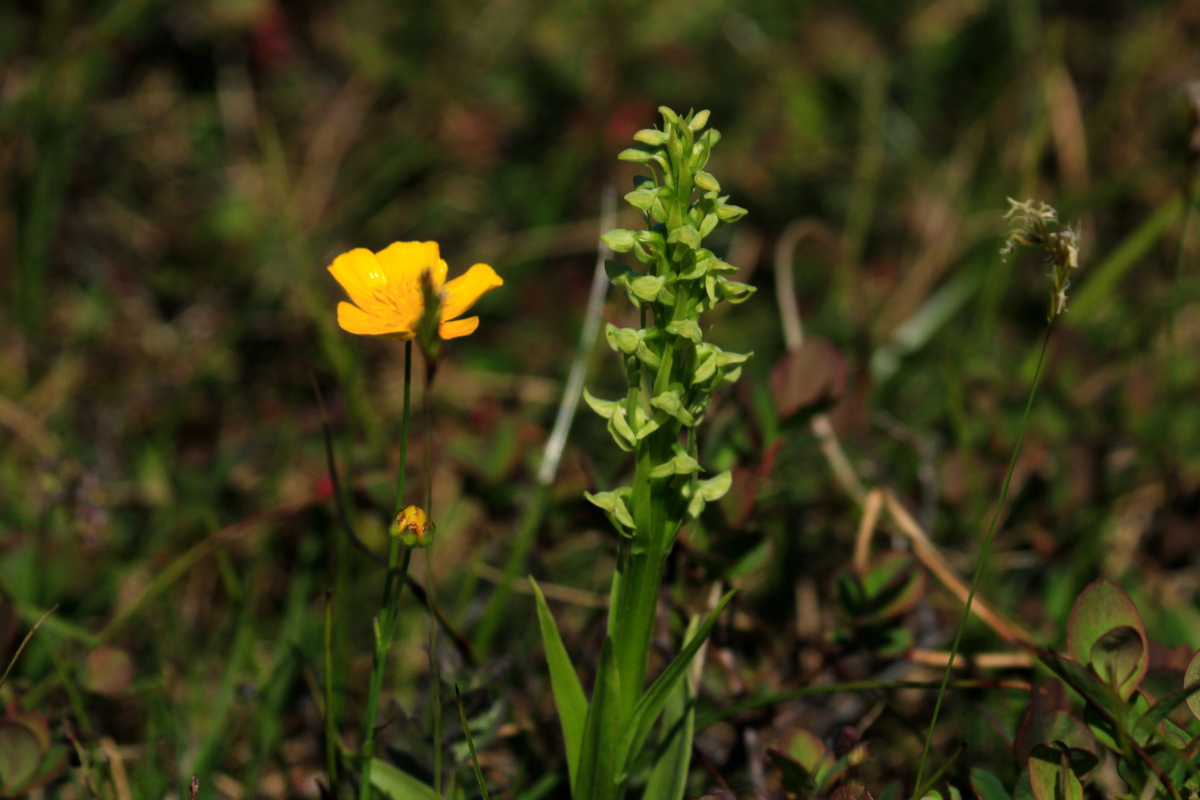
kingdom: Plantae
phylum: Tracheophyta
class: Liliopsida
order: Asparagales
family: Orchidaceae
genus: Platanthera
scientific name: Platanthera hyperborea
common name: Northern green orchid
